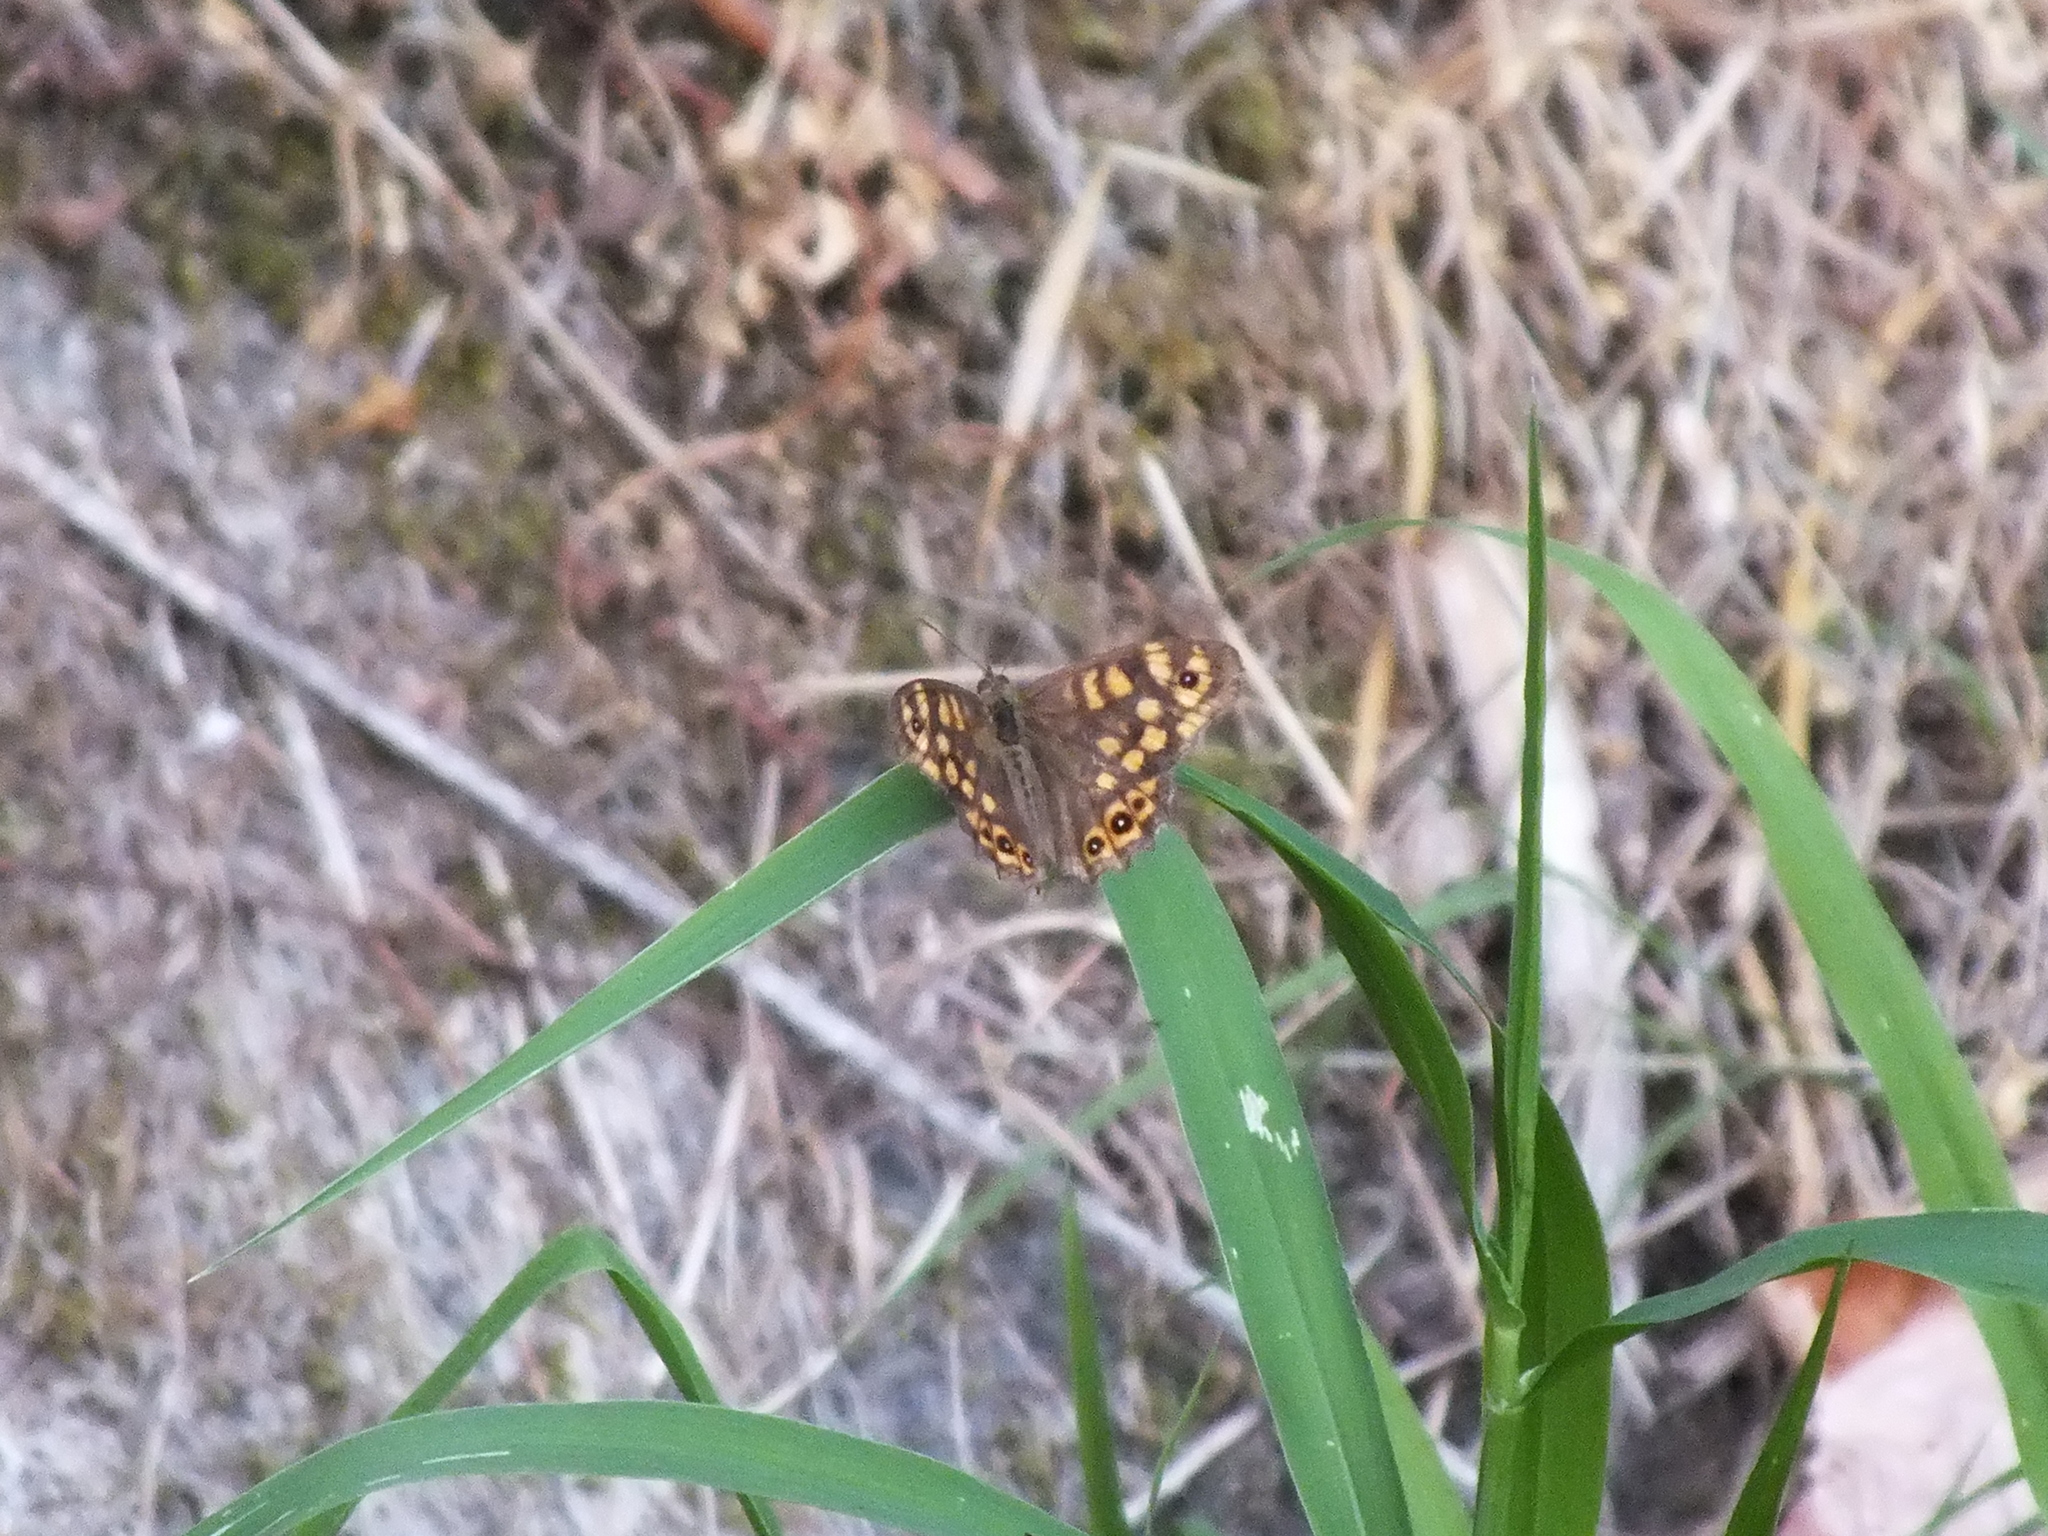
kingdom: Animalia
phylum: Arthropoda
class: Insecta
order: Lepidoptera
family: Nymphalidae
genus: Pararge
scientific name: Pararge aegeria
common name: Speckled wood
